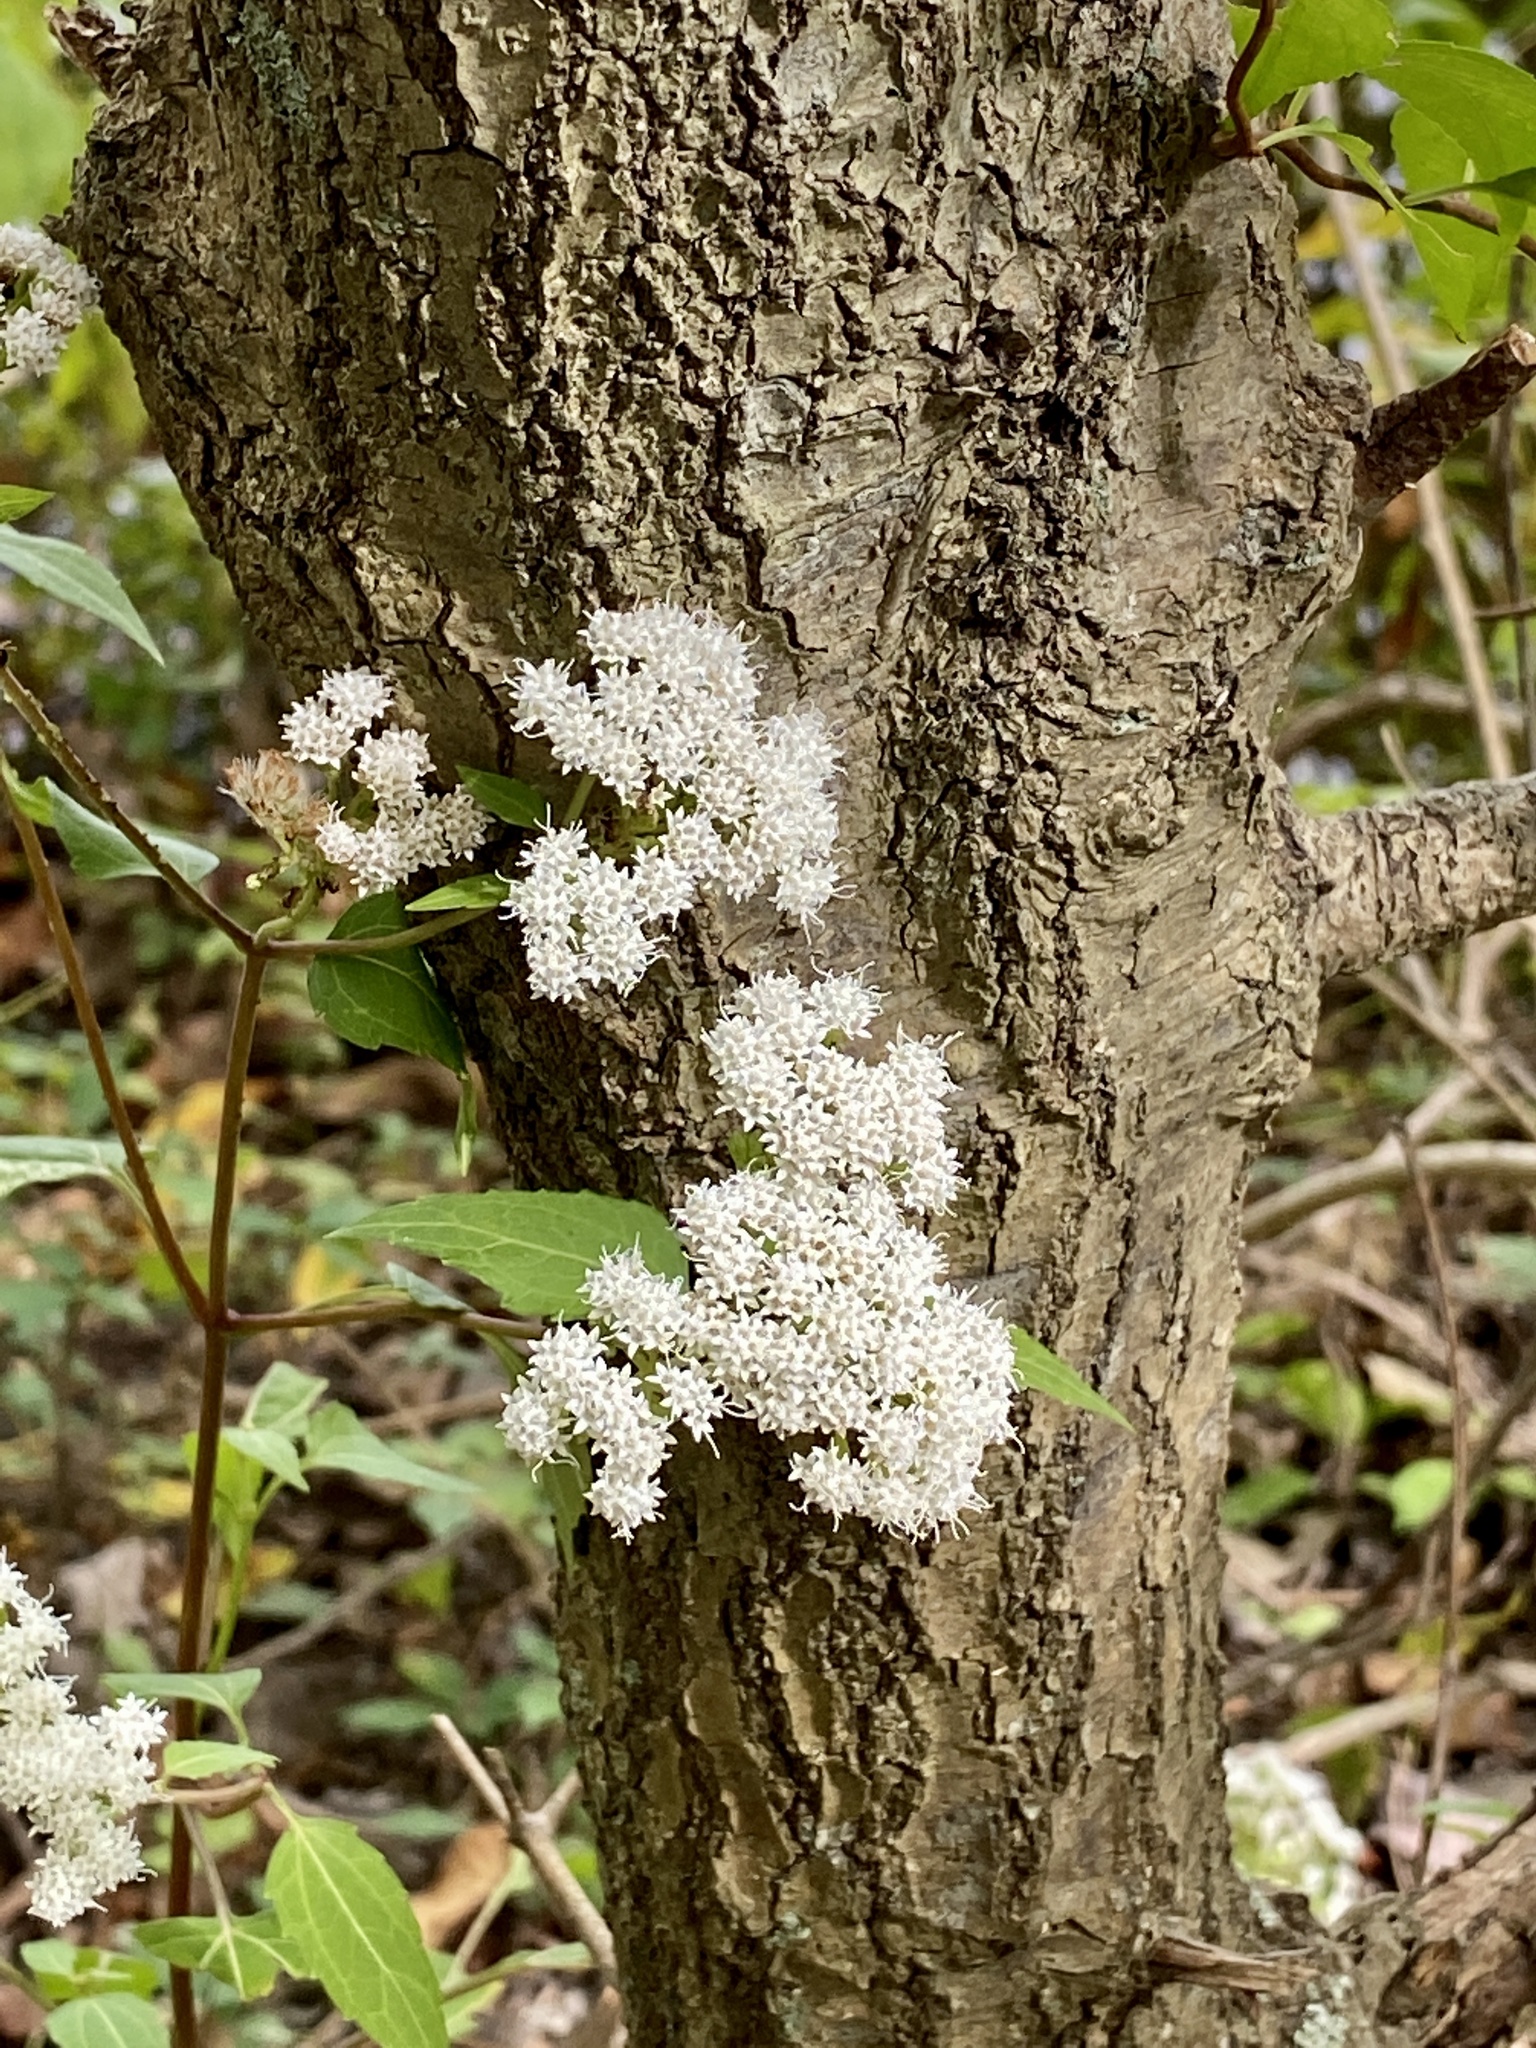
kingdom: Plantae
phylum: Tracheophyta
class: Magnoliopsida
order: Asterales
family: Asteraceae
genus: Ageratina
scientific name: Ageratina altissima
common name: White snakeroot
